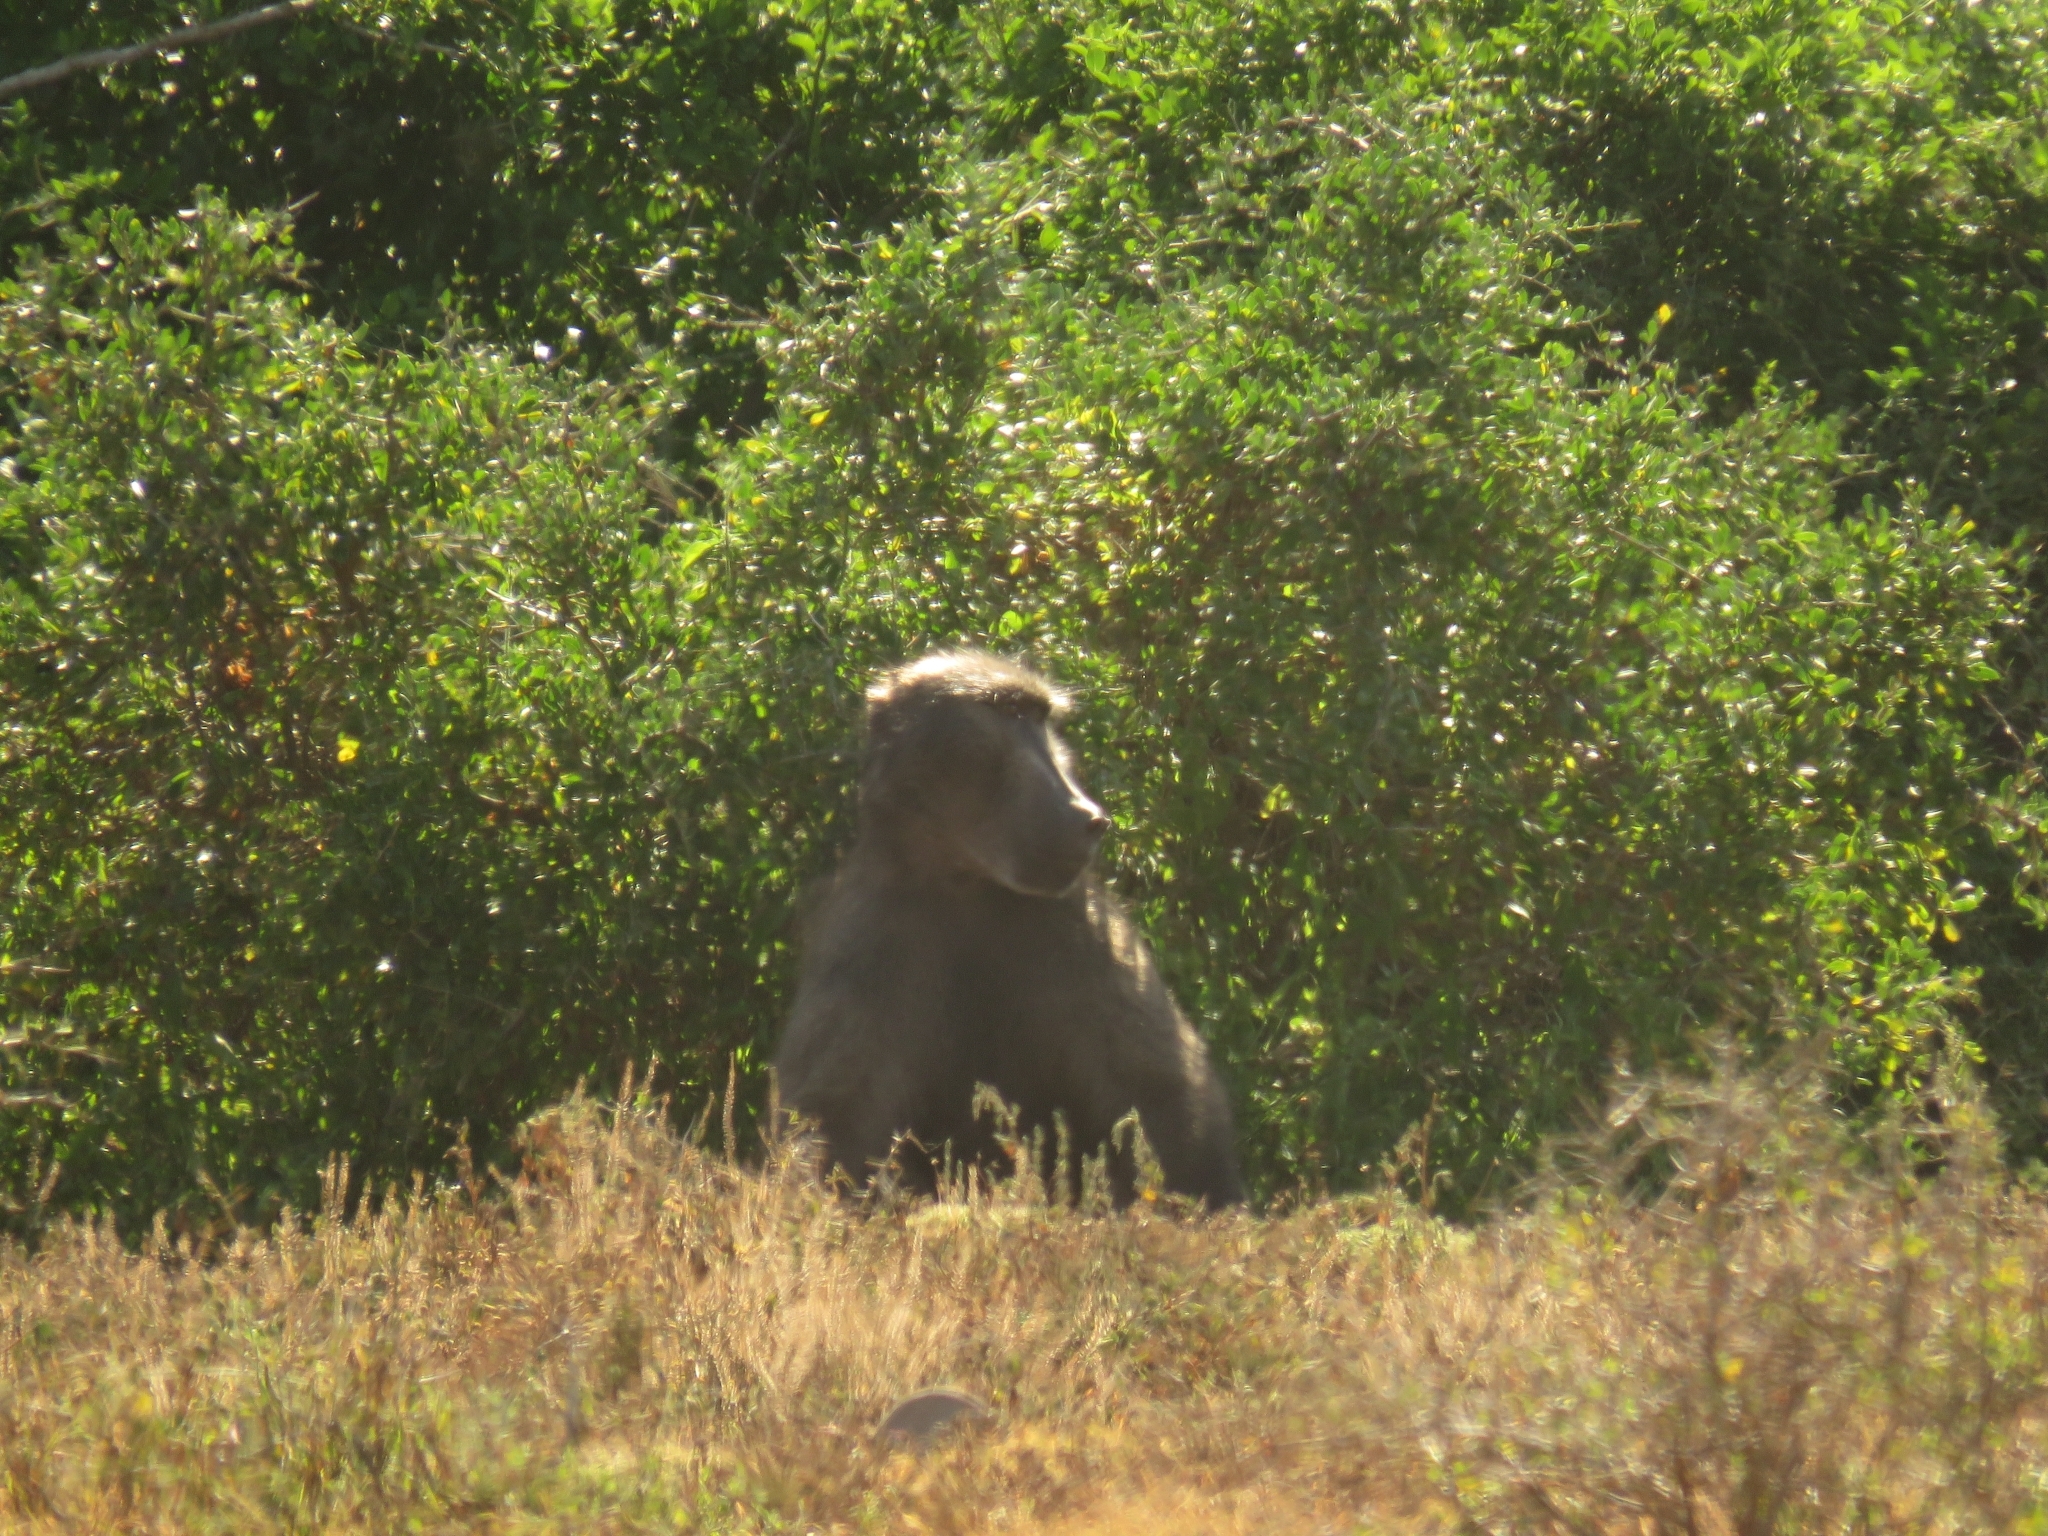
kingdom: Animalia
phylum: Chordata
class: Mammalia
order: Primates
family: Cercopithecidae
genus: Papio
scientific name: Papio ursinus
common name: Chacma baboon
